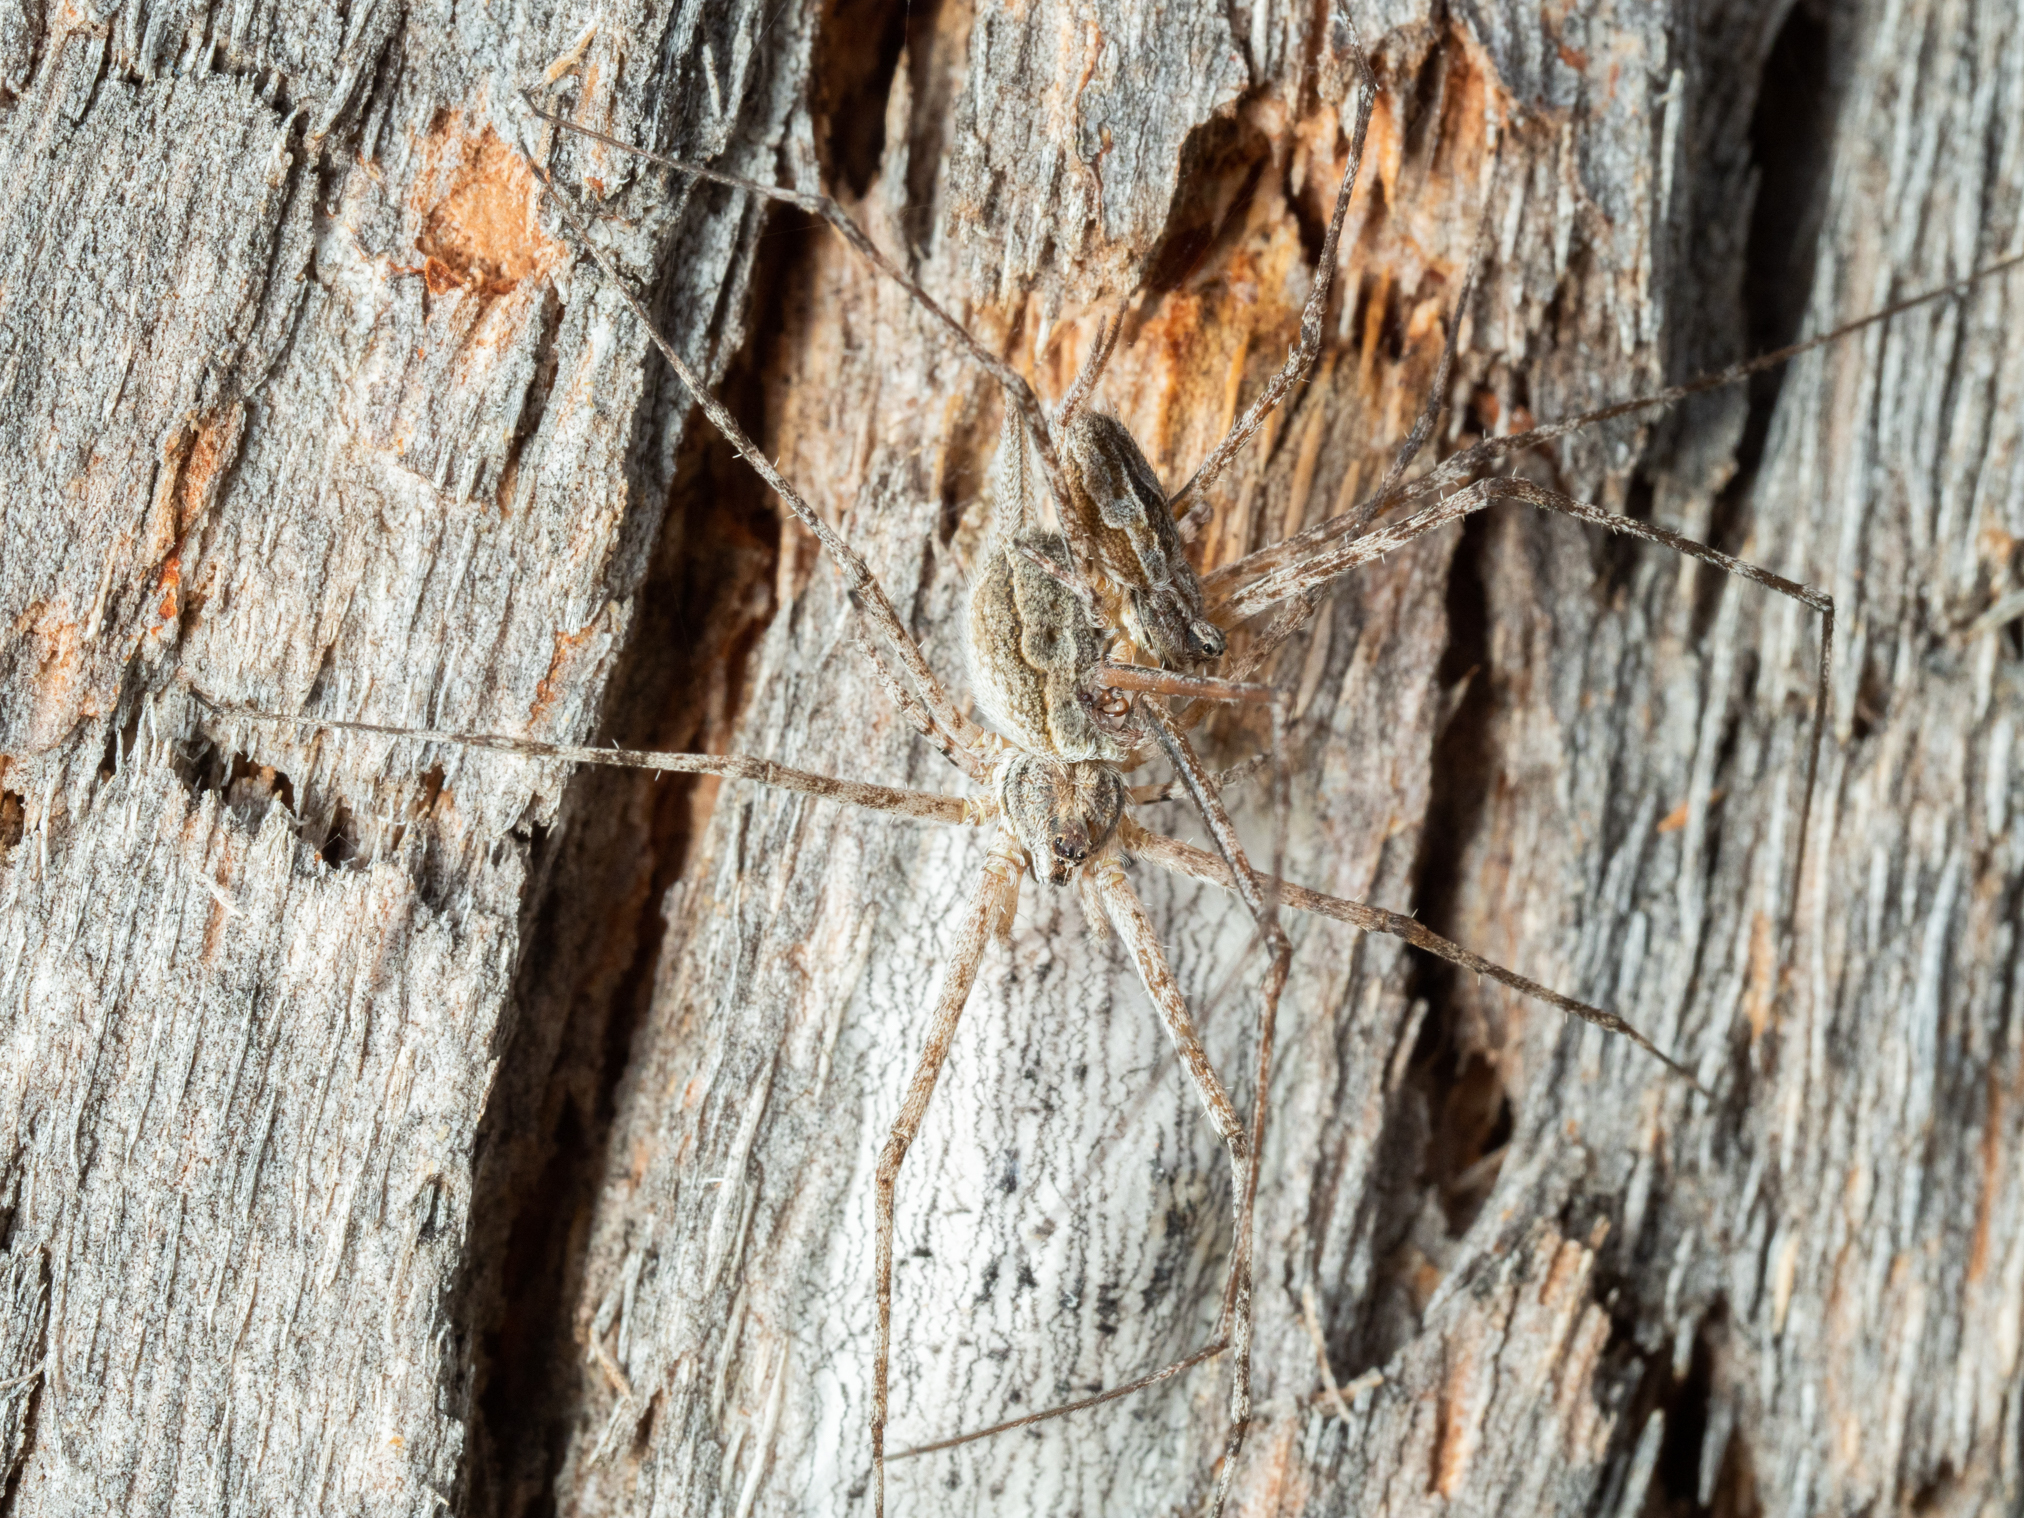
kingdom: Animalia
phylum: Arthropoda
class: Arachnida
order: Araneae
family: Hersiliidae
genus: Tamopsis
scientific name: Tamopsis fickerti
